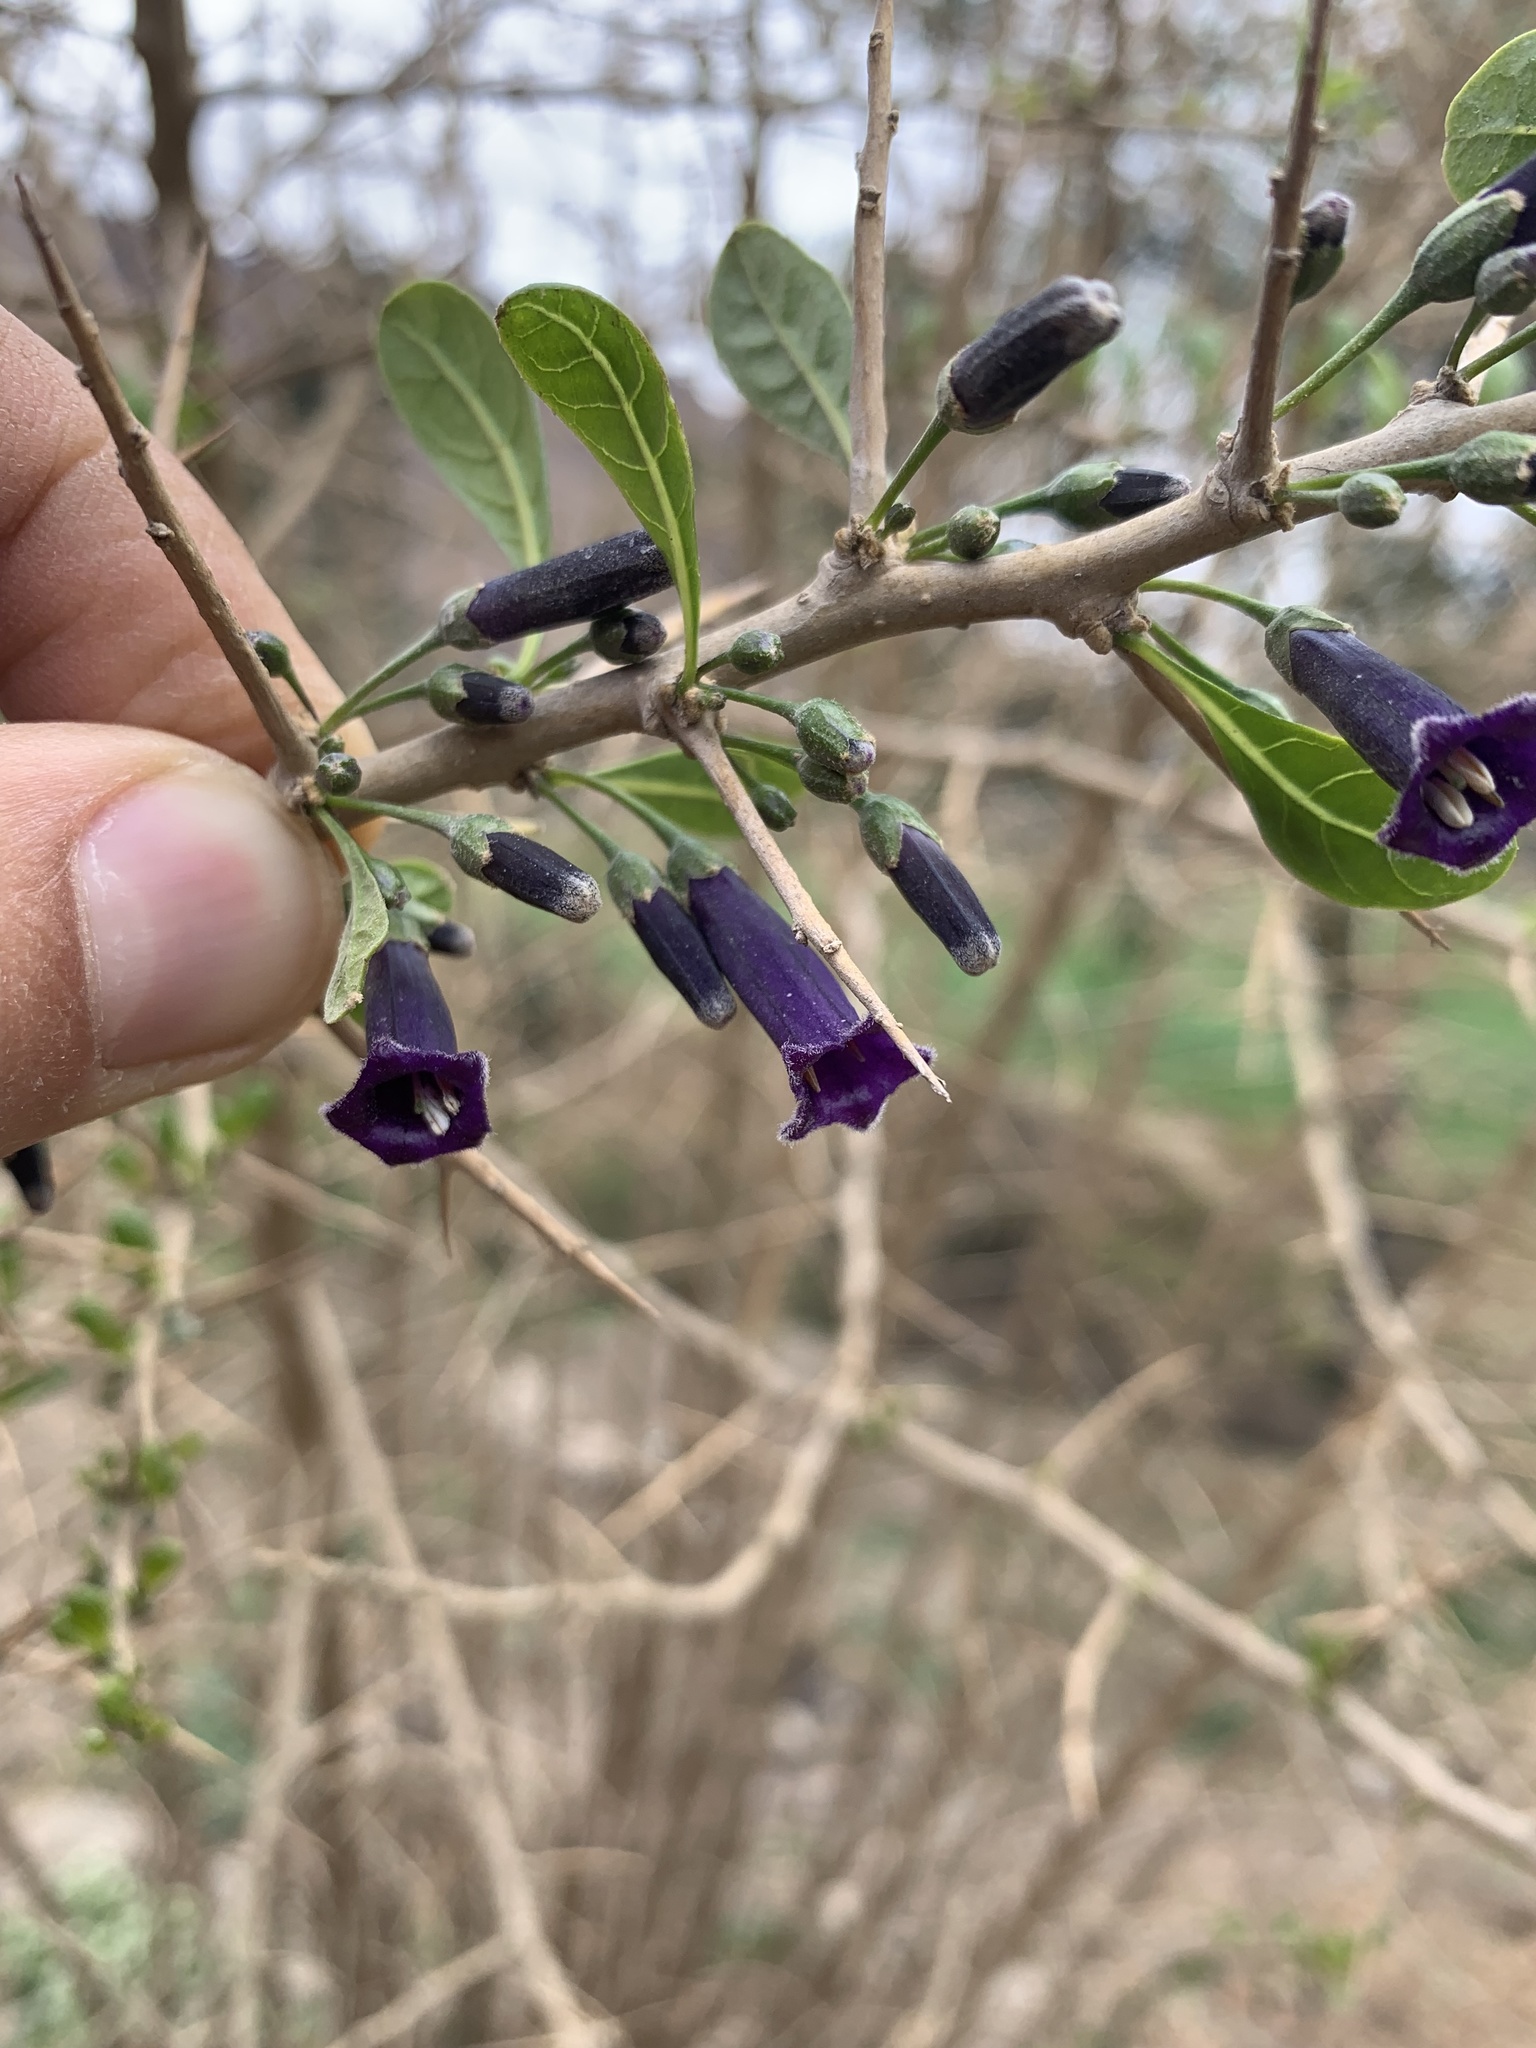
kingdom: Plantae
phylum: Tracheophyta
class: Magnoliopsida
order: Solanales
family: Solanaceae
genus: Dunalia
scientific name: Dunalia spinosa
